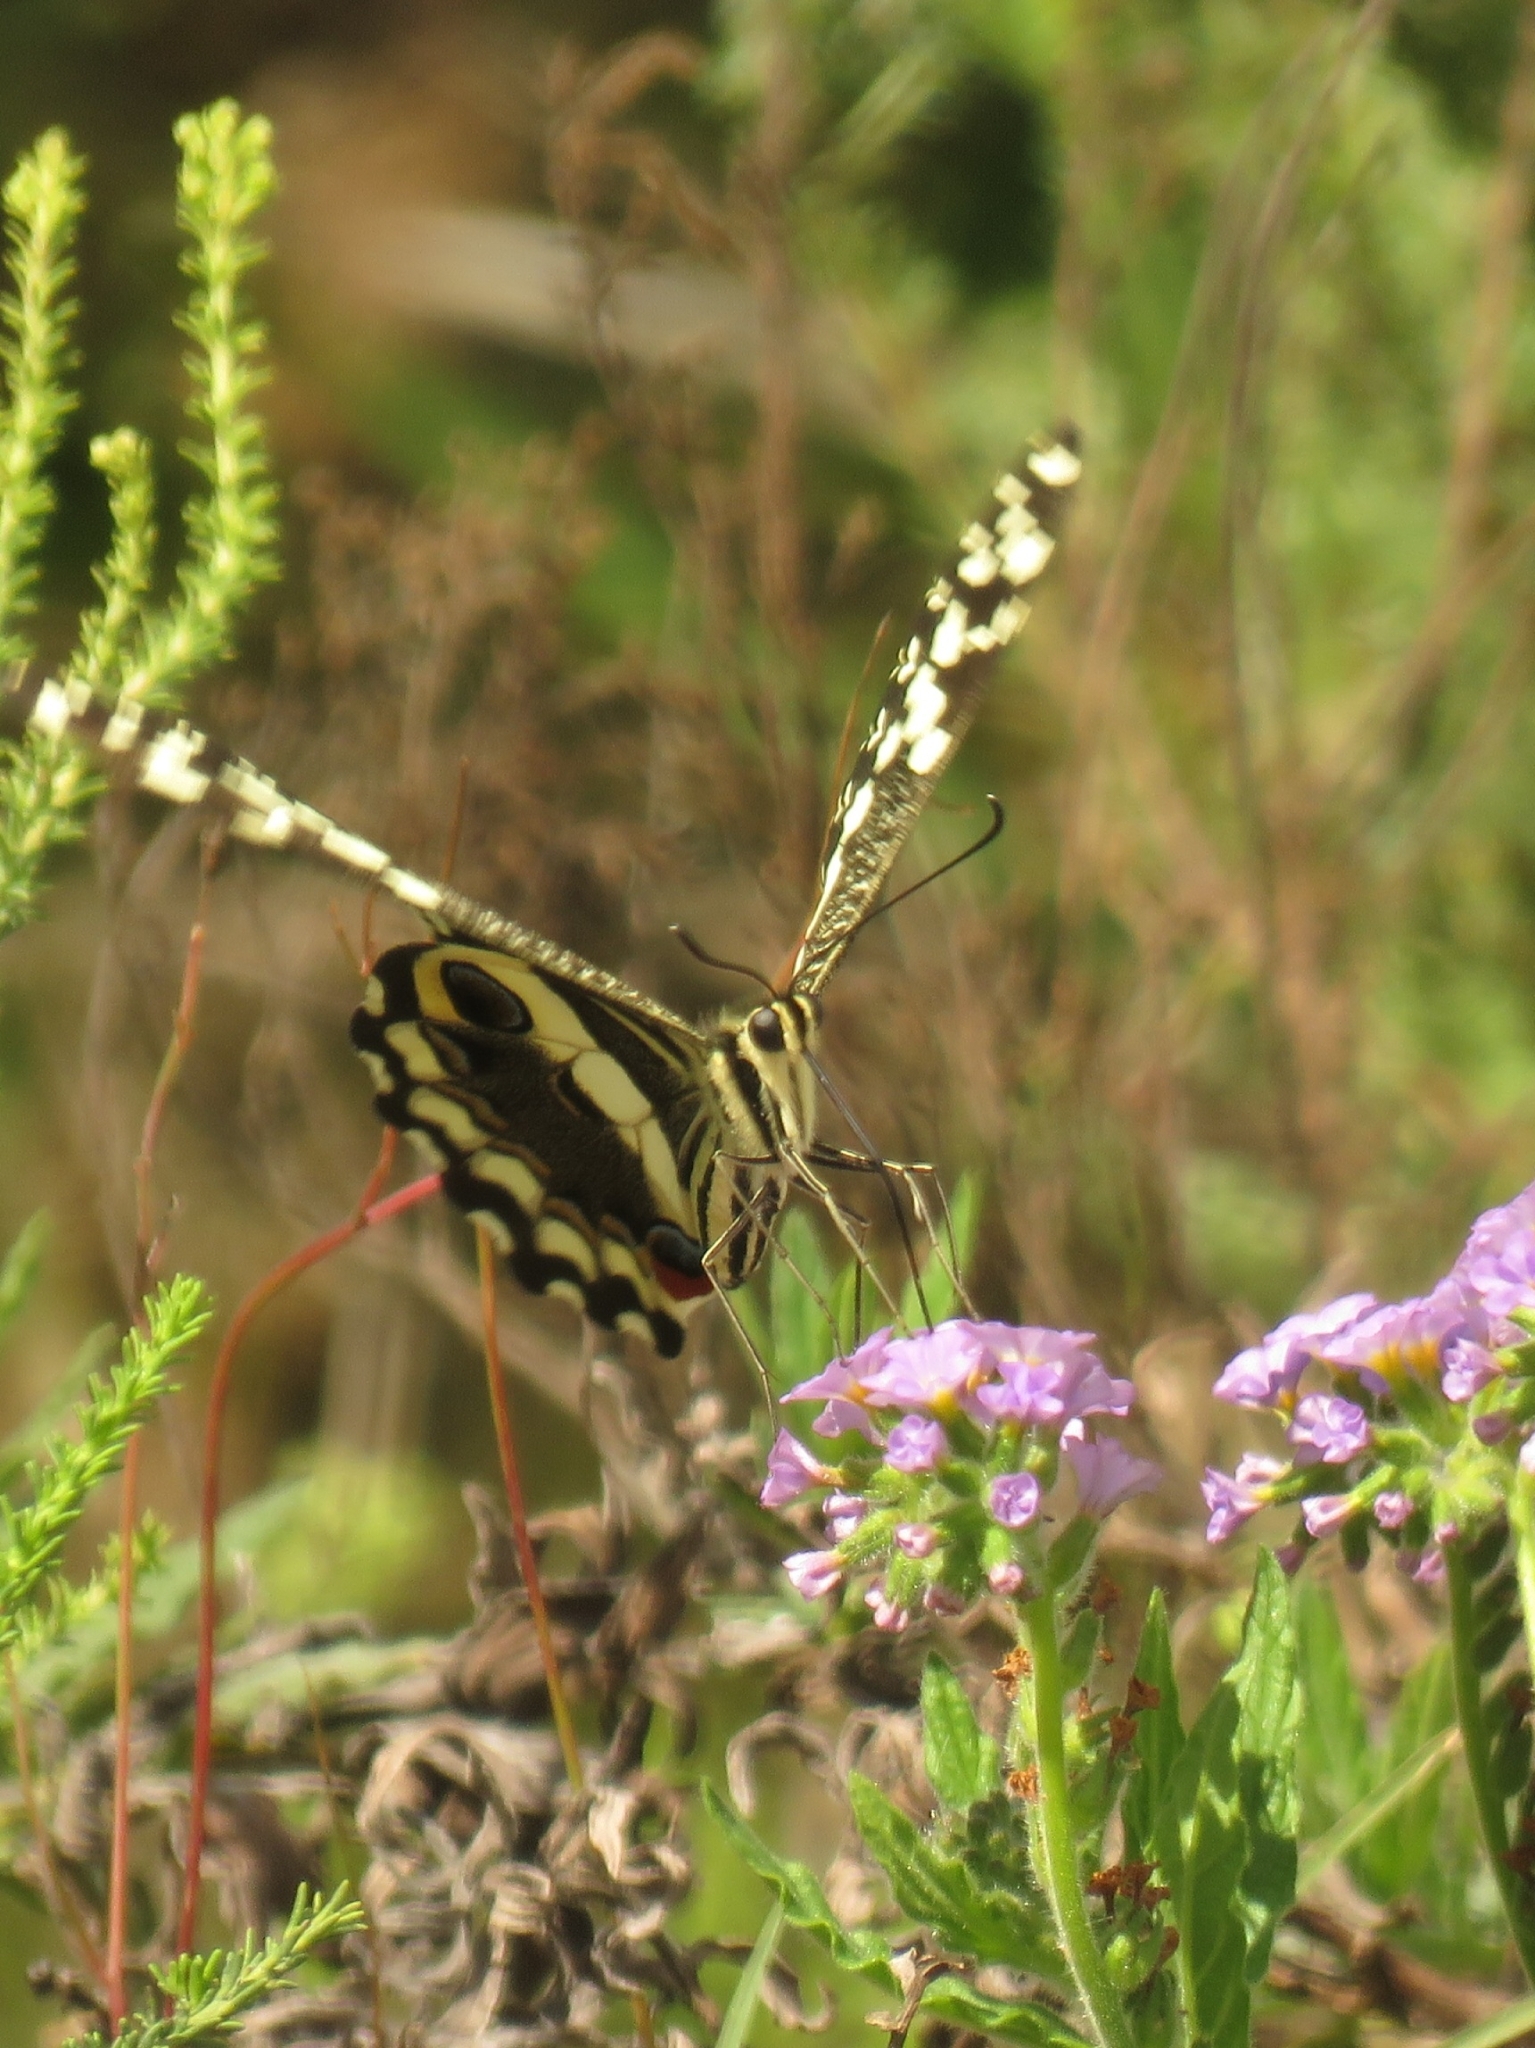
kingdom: Animalia
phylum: Arthropoda
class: Insecta
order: Lepidoptera
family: Papilionidae
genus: Papilio
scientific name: Papilio demodocus
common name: Christmas butterfly
